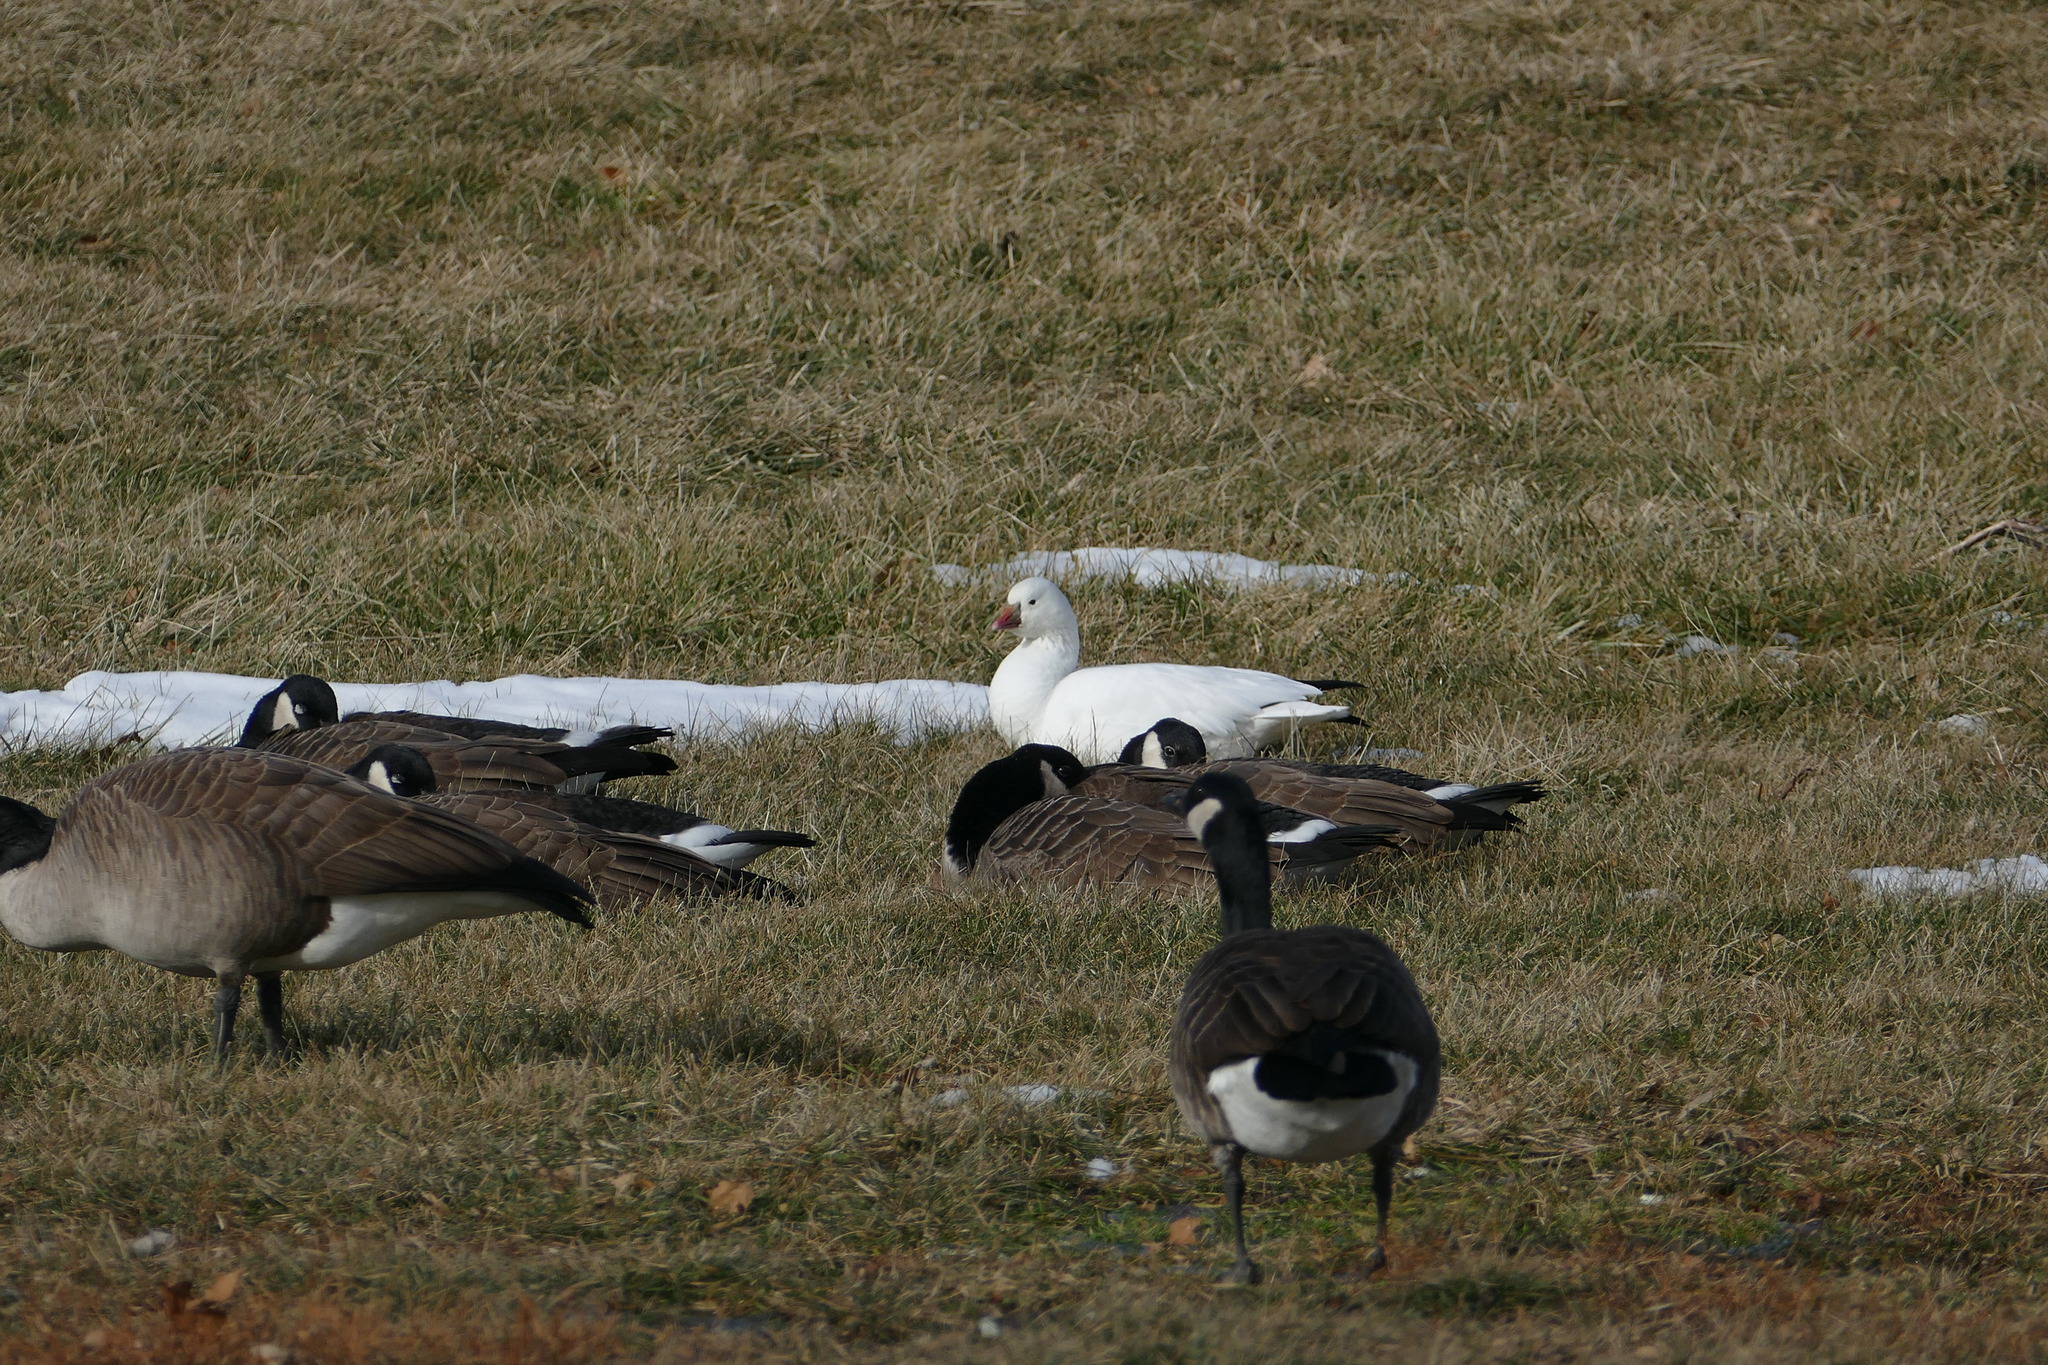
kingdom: Animalia
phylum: Chordata
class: Aves
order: Anseriformes
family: Anatidae
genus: Anser
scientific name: Anser rossii
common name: Ross's goose
